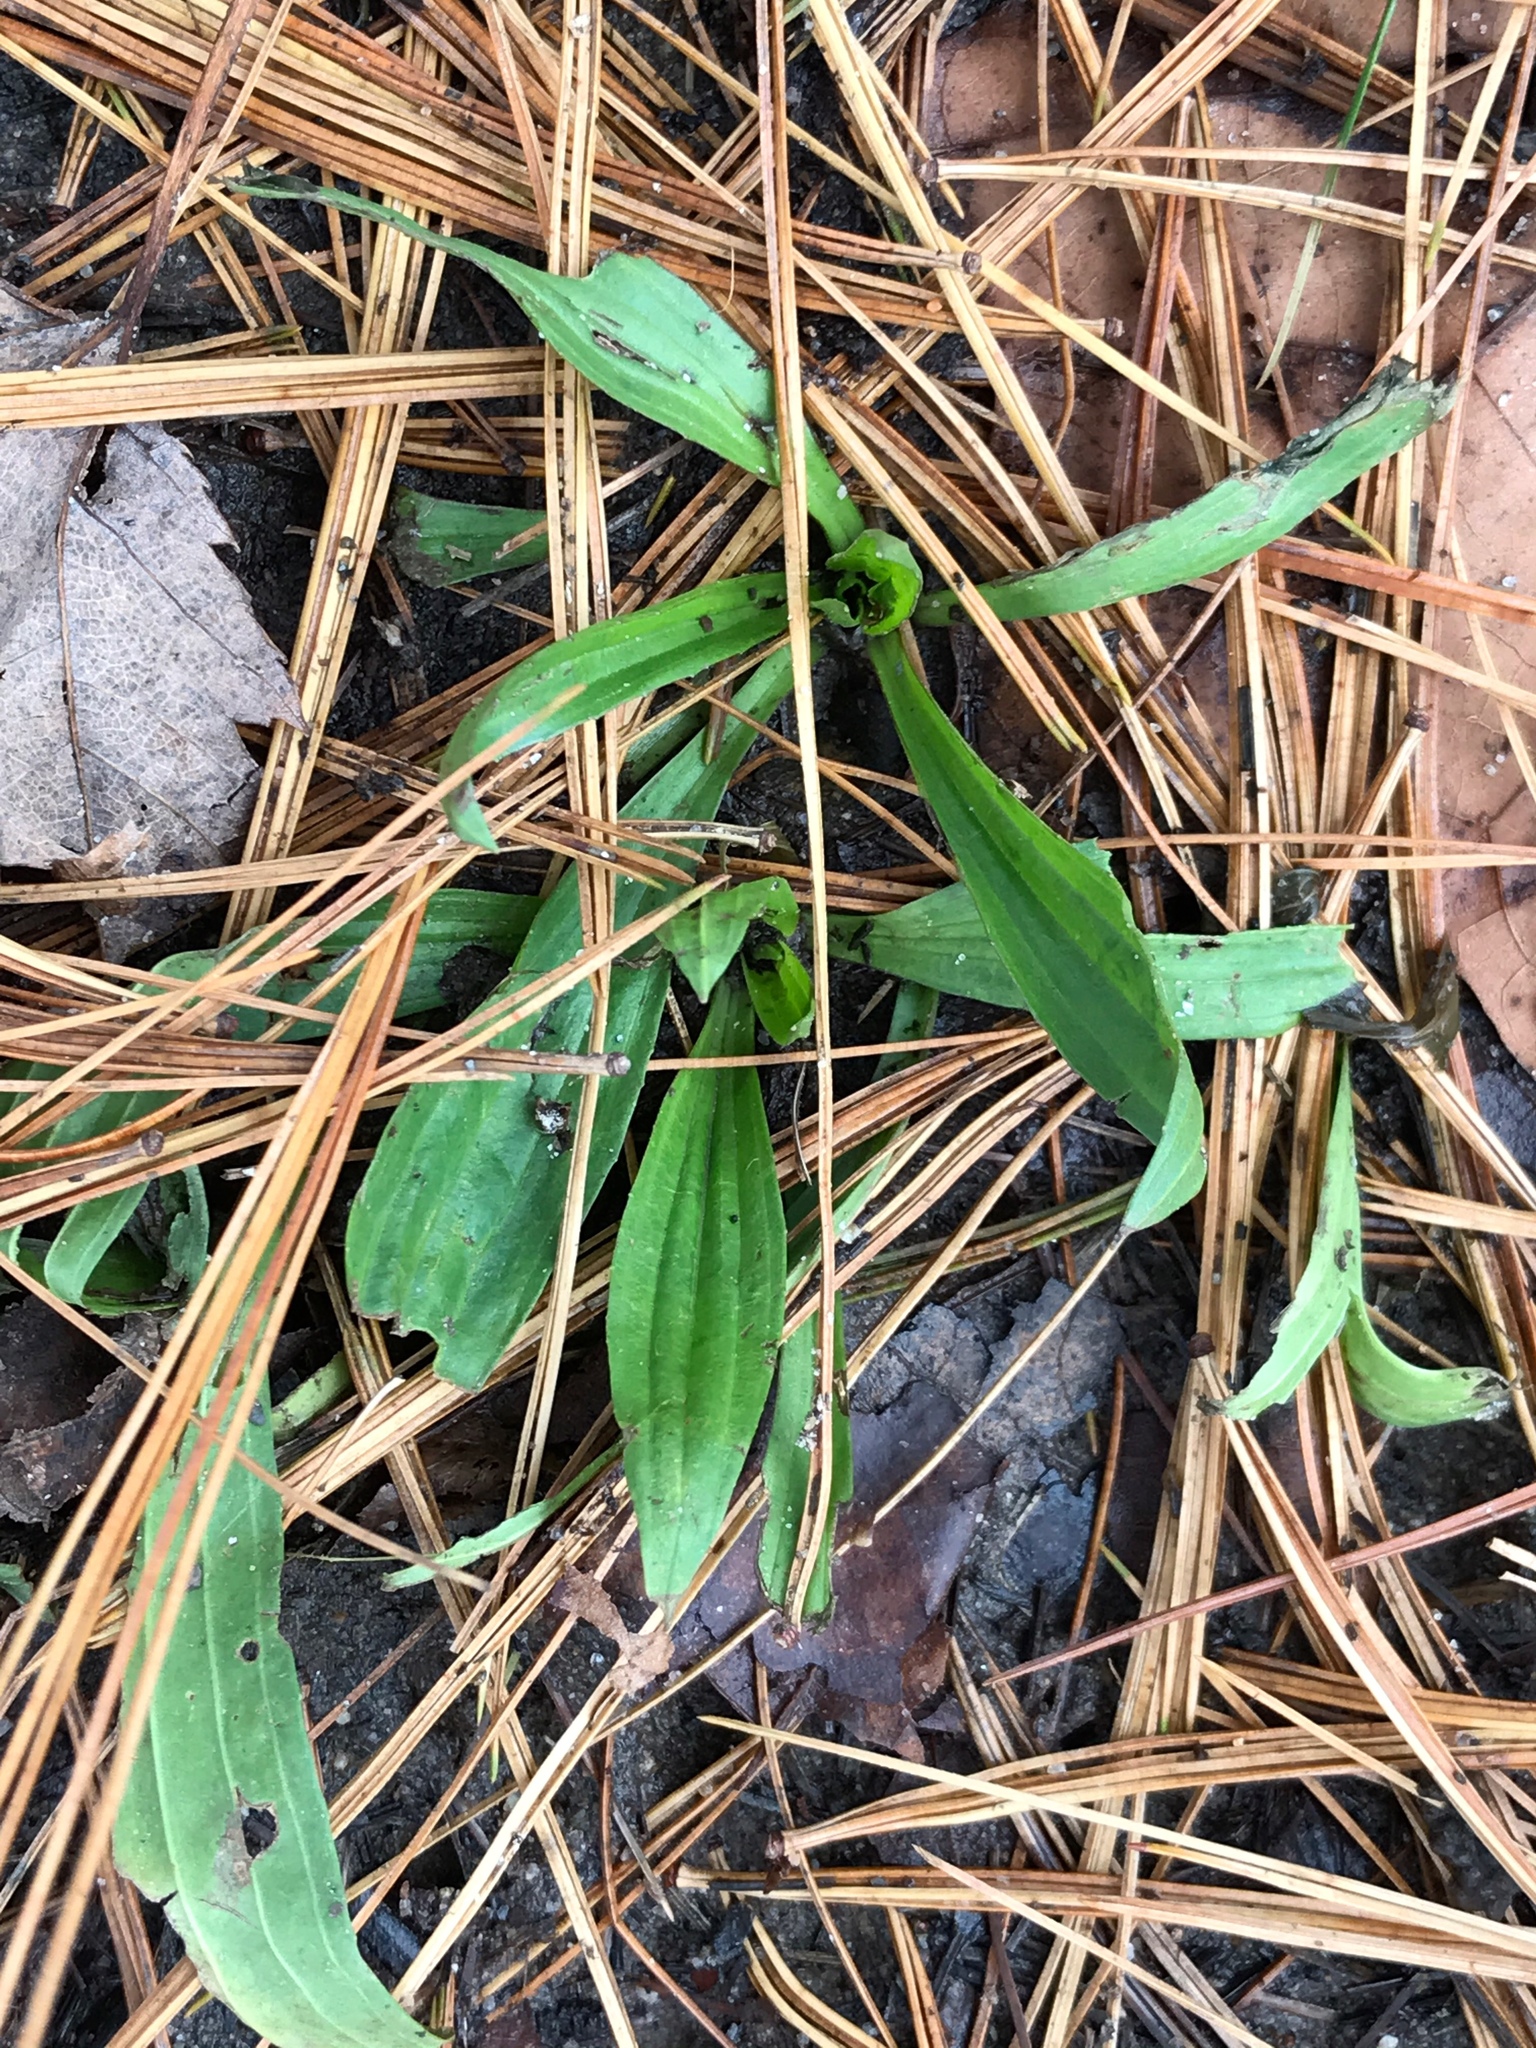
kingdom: Plantae
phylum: Tracheophyta
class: Magnoliopsida
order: Lamiales
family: Plantaginaceae
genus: Plantago
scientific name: Plantago lanceolata
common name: Ribwort plantain
